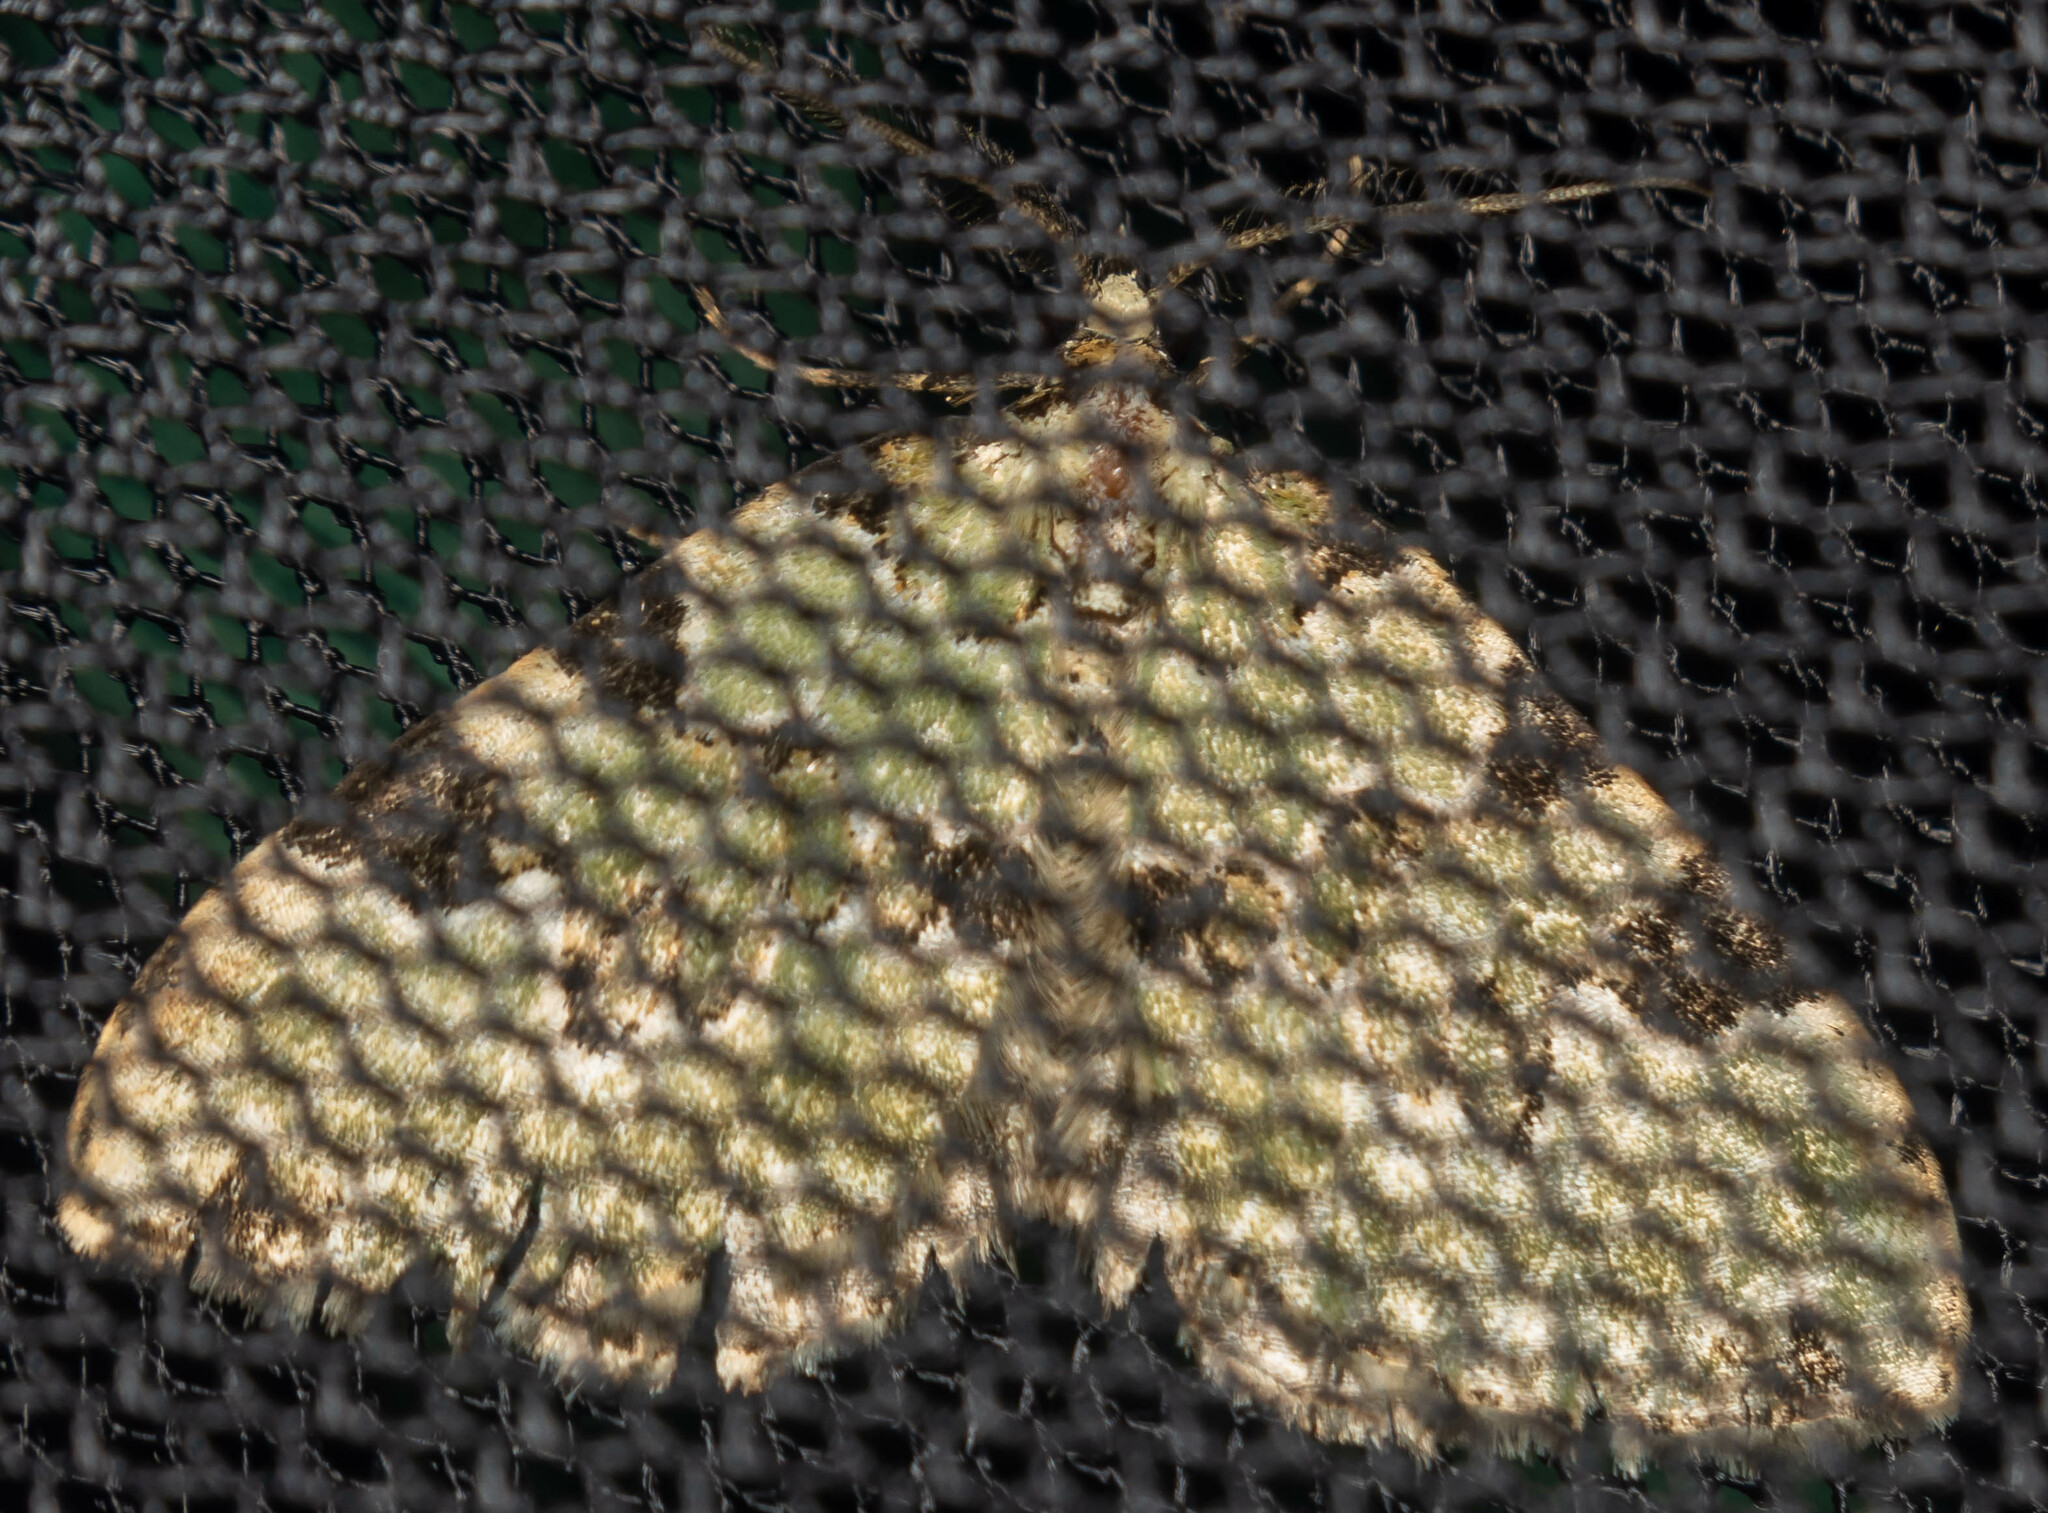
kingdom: Animalia
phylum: Arthropoda
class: Insecta
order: Lepidoptera
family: Geometridae
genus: Colostygia
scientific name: Colostygia pectinataria
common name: Green carpet
